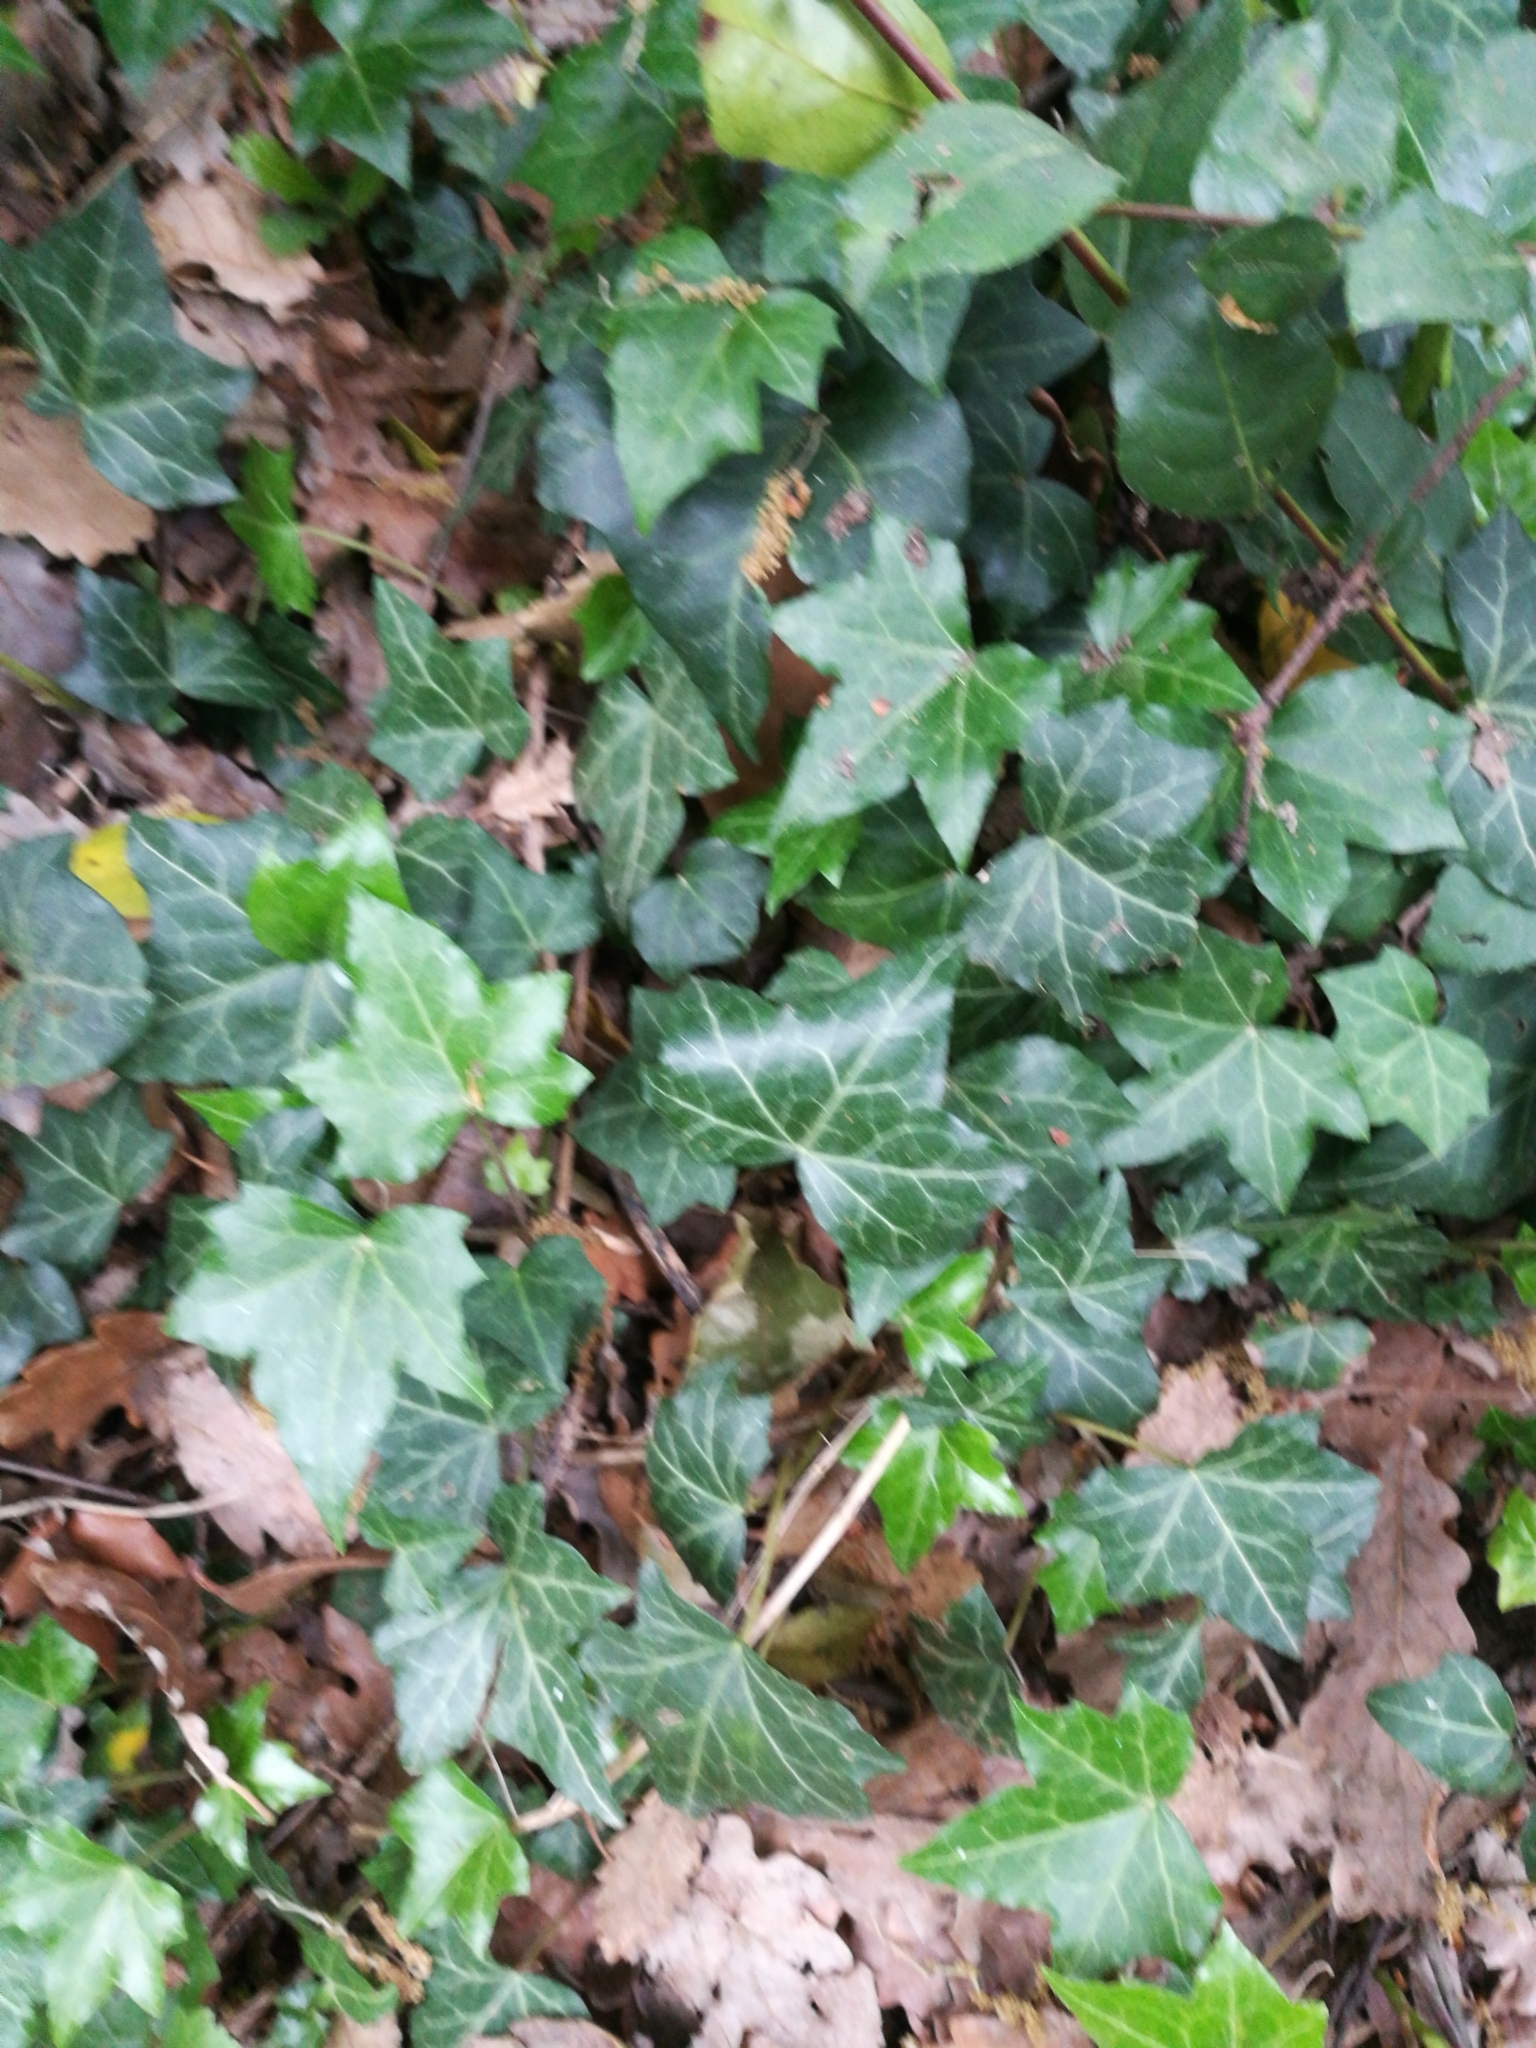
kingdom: Plantae
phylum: Tracheophyta
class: Magnoliopsida
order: Apiales
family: Araliaceae
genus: Hedera
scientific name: Hedera helix
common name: Ivy
